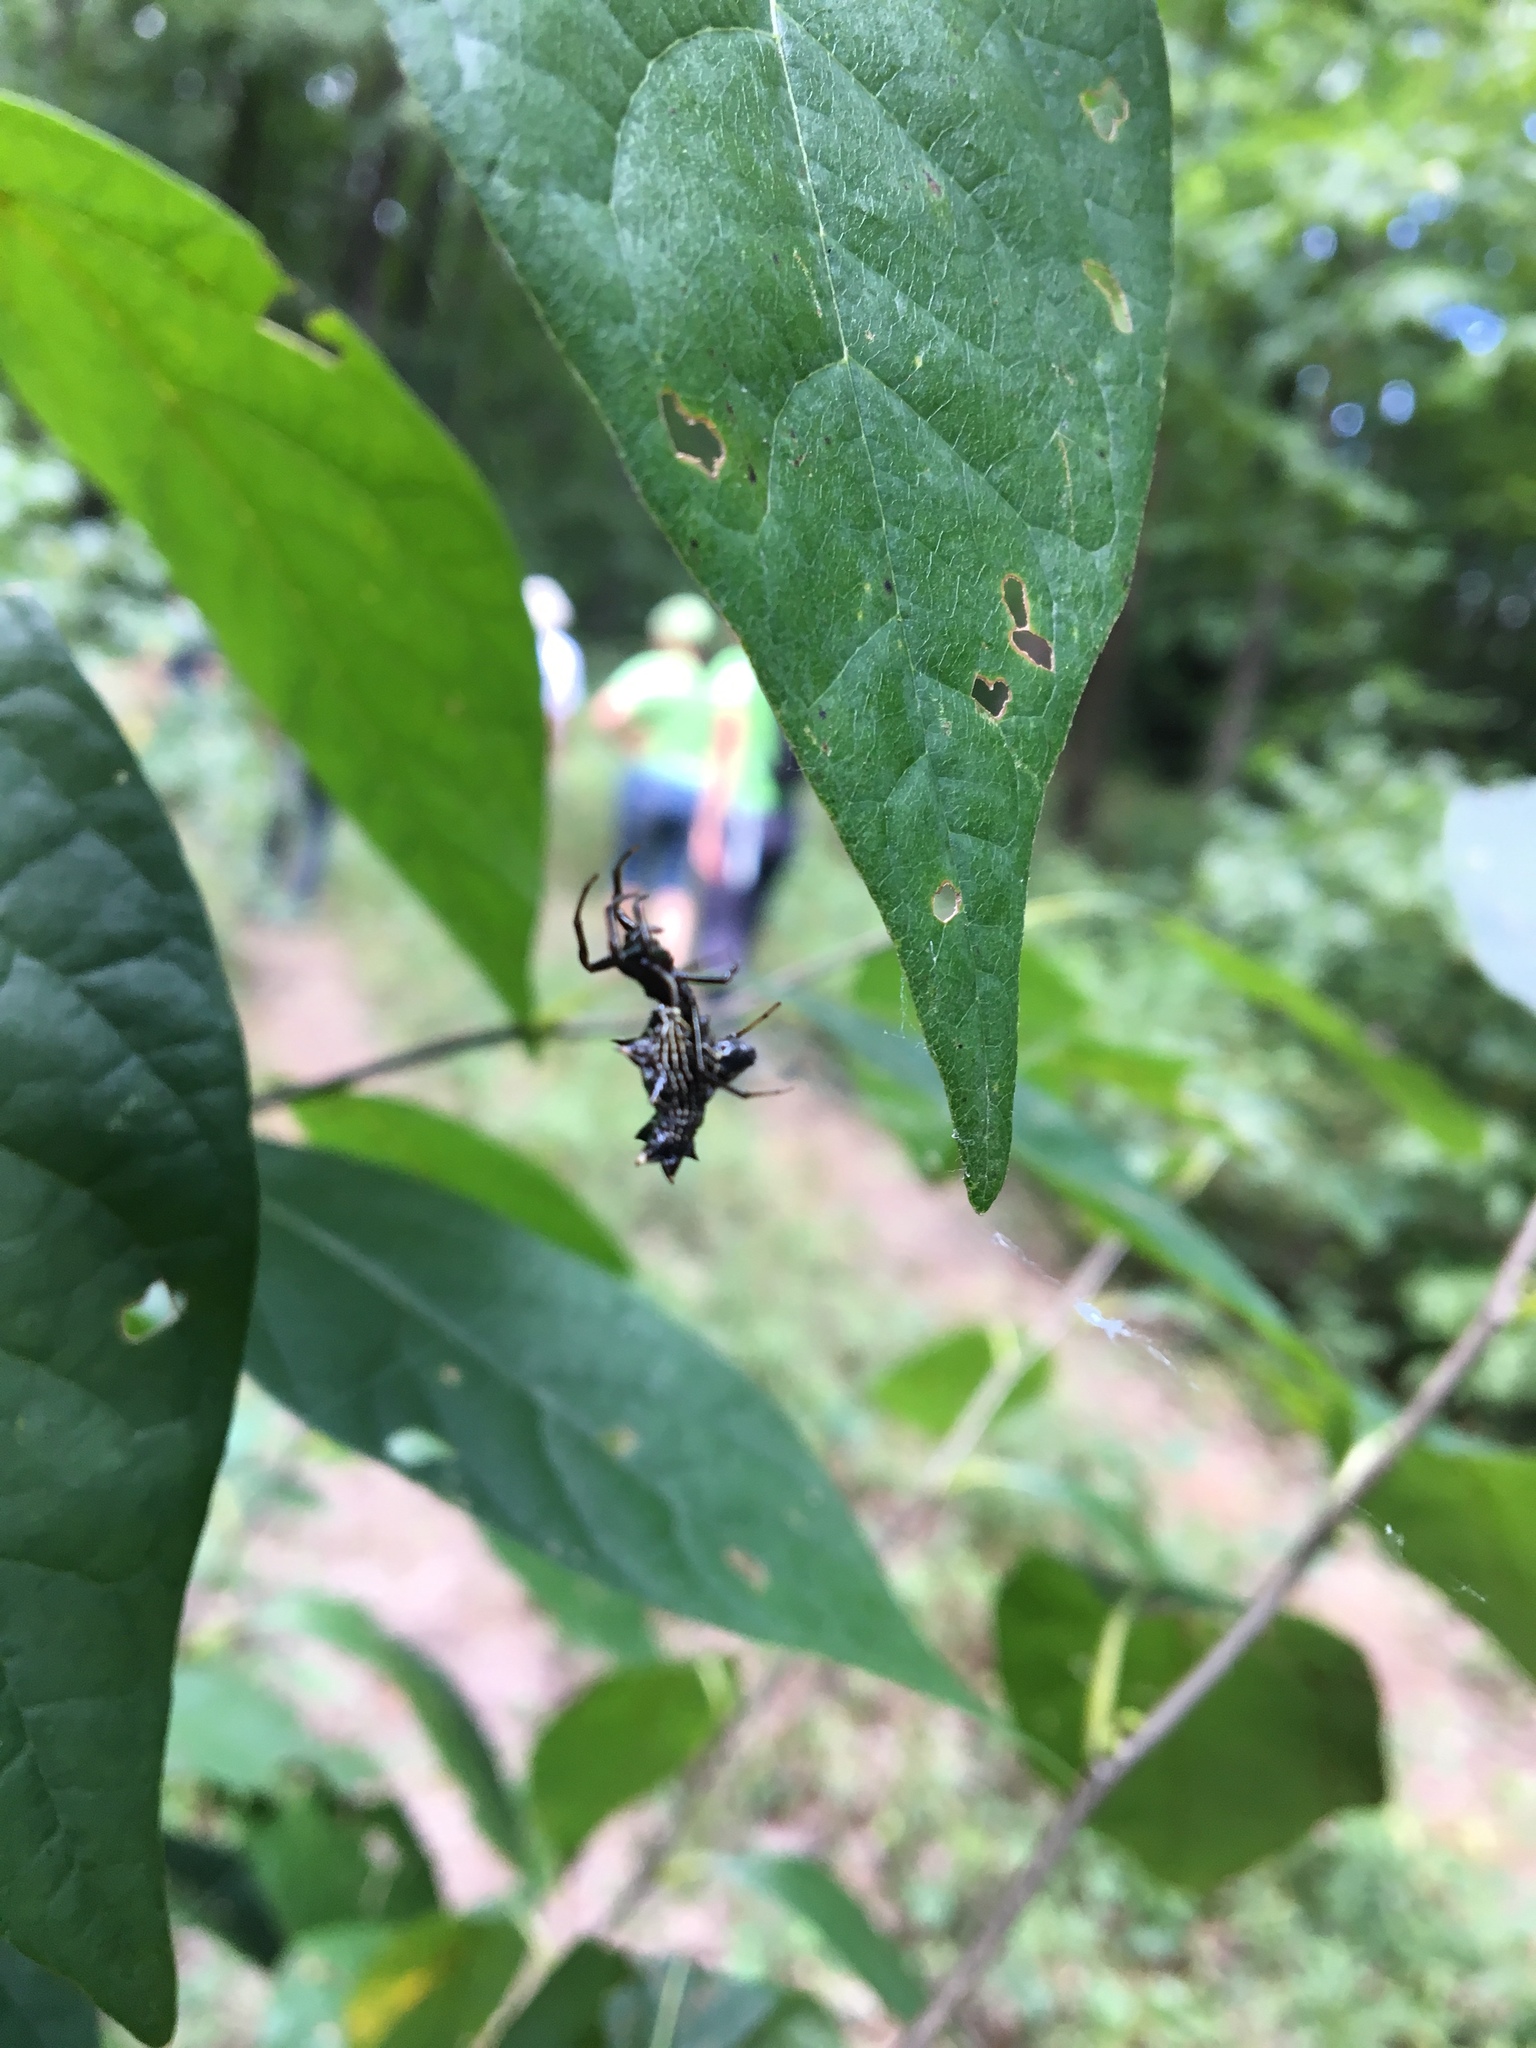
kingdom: Animalia
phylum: Arthropoda
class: Arachnida
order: Araneae
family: Araneidae
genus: Micrathena
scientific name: Micrathena gracilis
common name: Orb weavers
